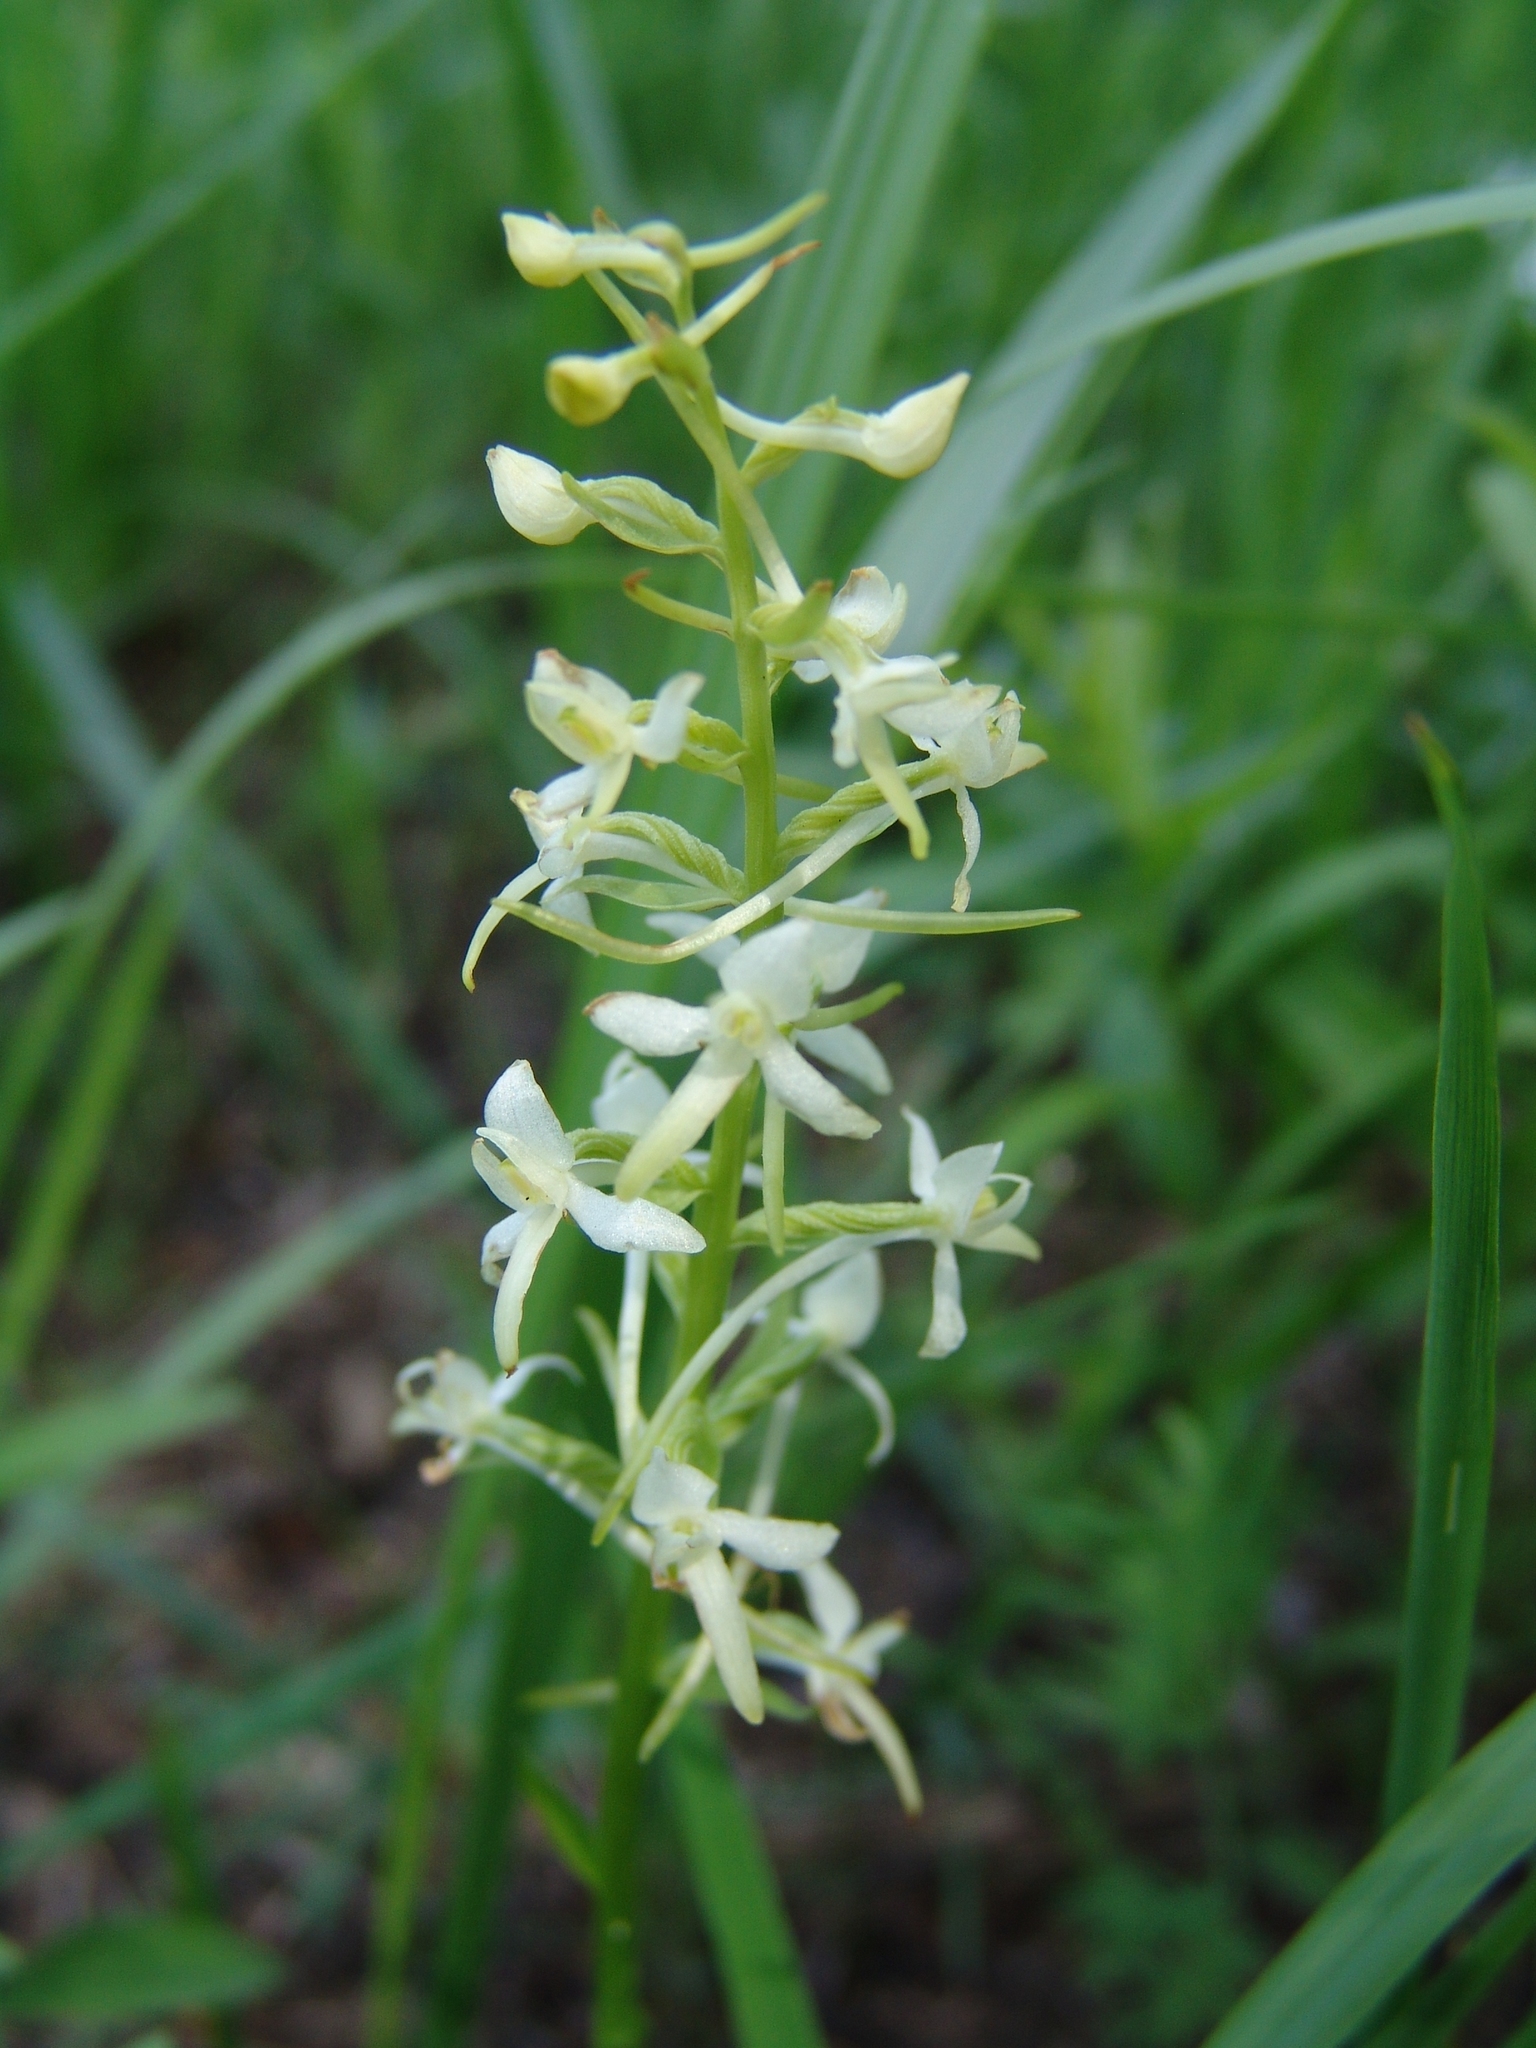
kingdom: Plantae
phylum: Tracheophyta
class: Liliopsida
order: Asparagales
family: Orchidaceae
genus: Platanthera
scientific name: Platanthera bifolia
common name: Lesser butterfly-orchid
